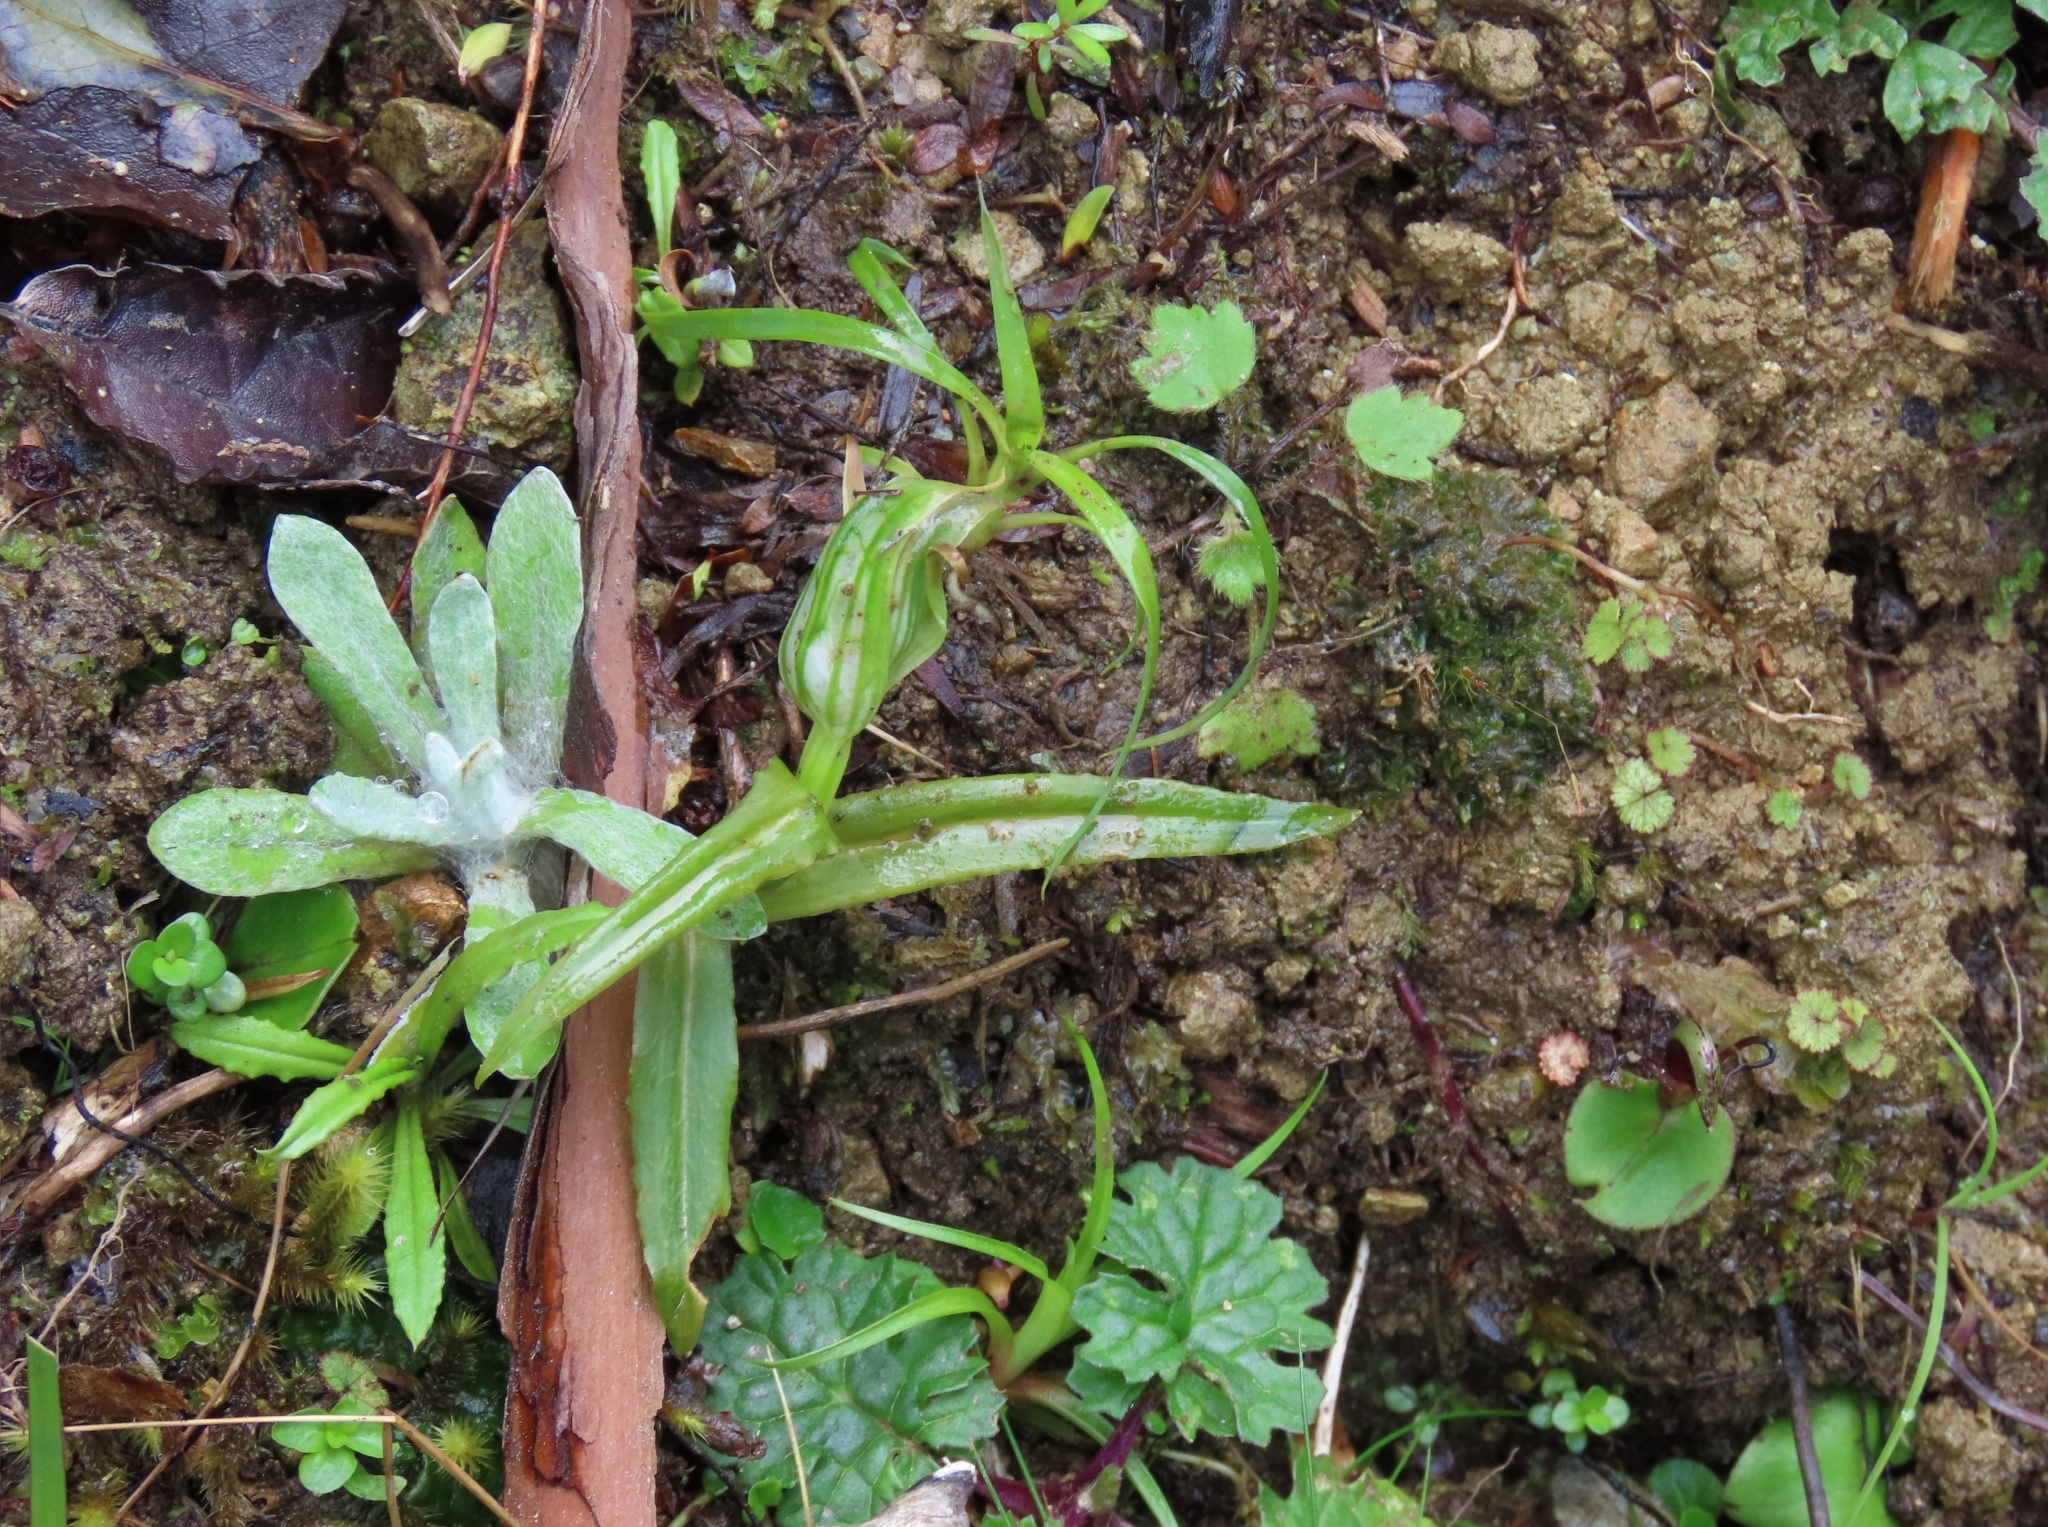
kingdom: Plantae
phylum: Tracheophyta
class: Liliopsida
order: Asparagales
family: Orchidaceae
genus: Pterostylis
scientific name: Pterostylis montana
